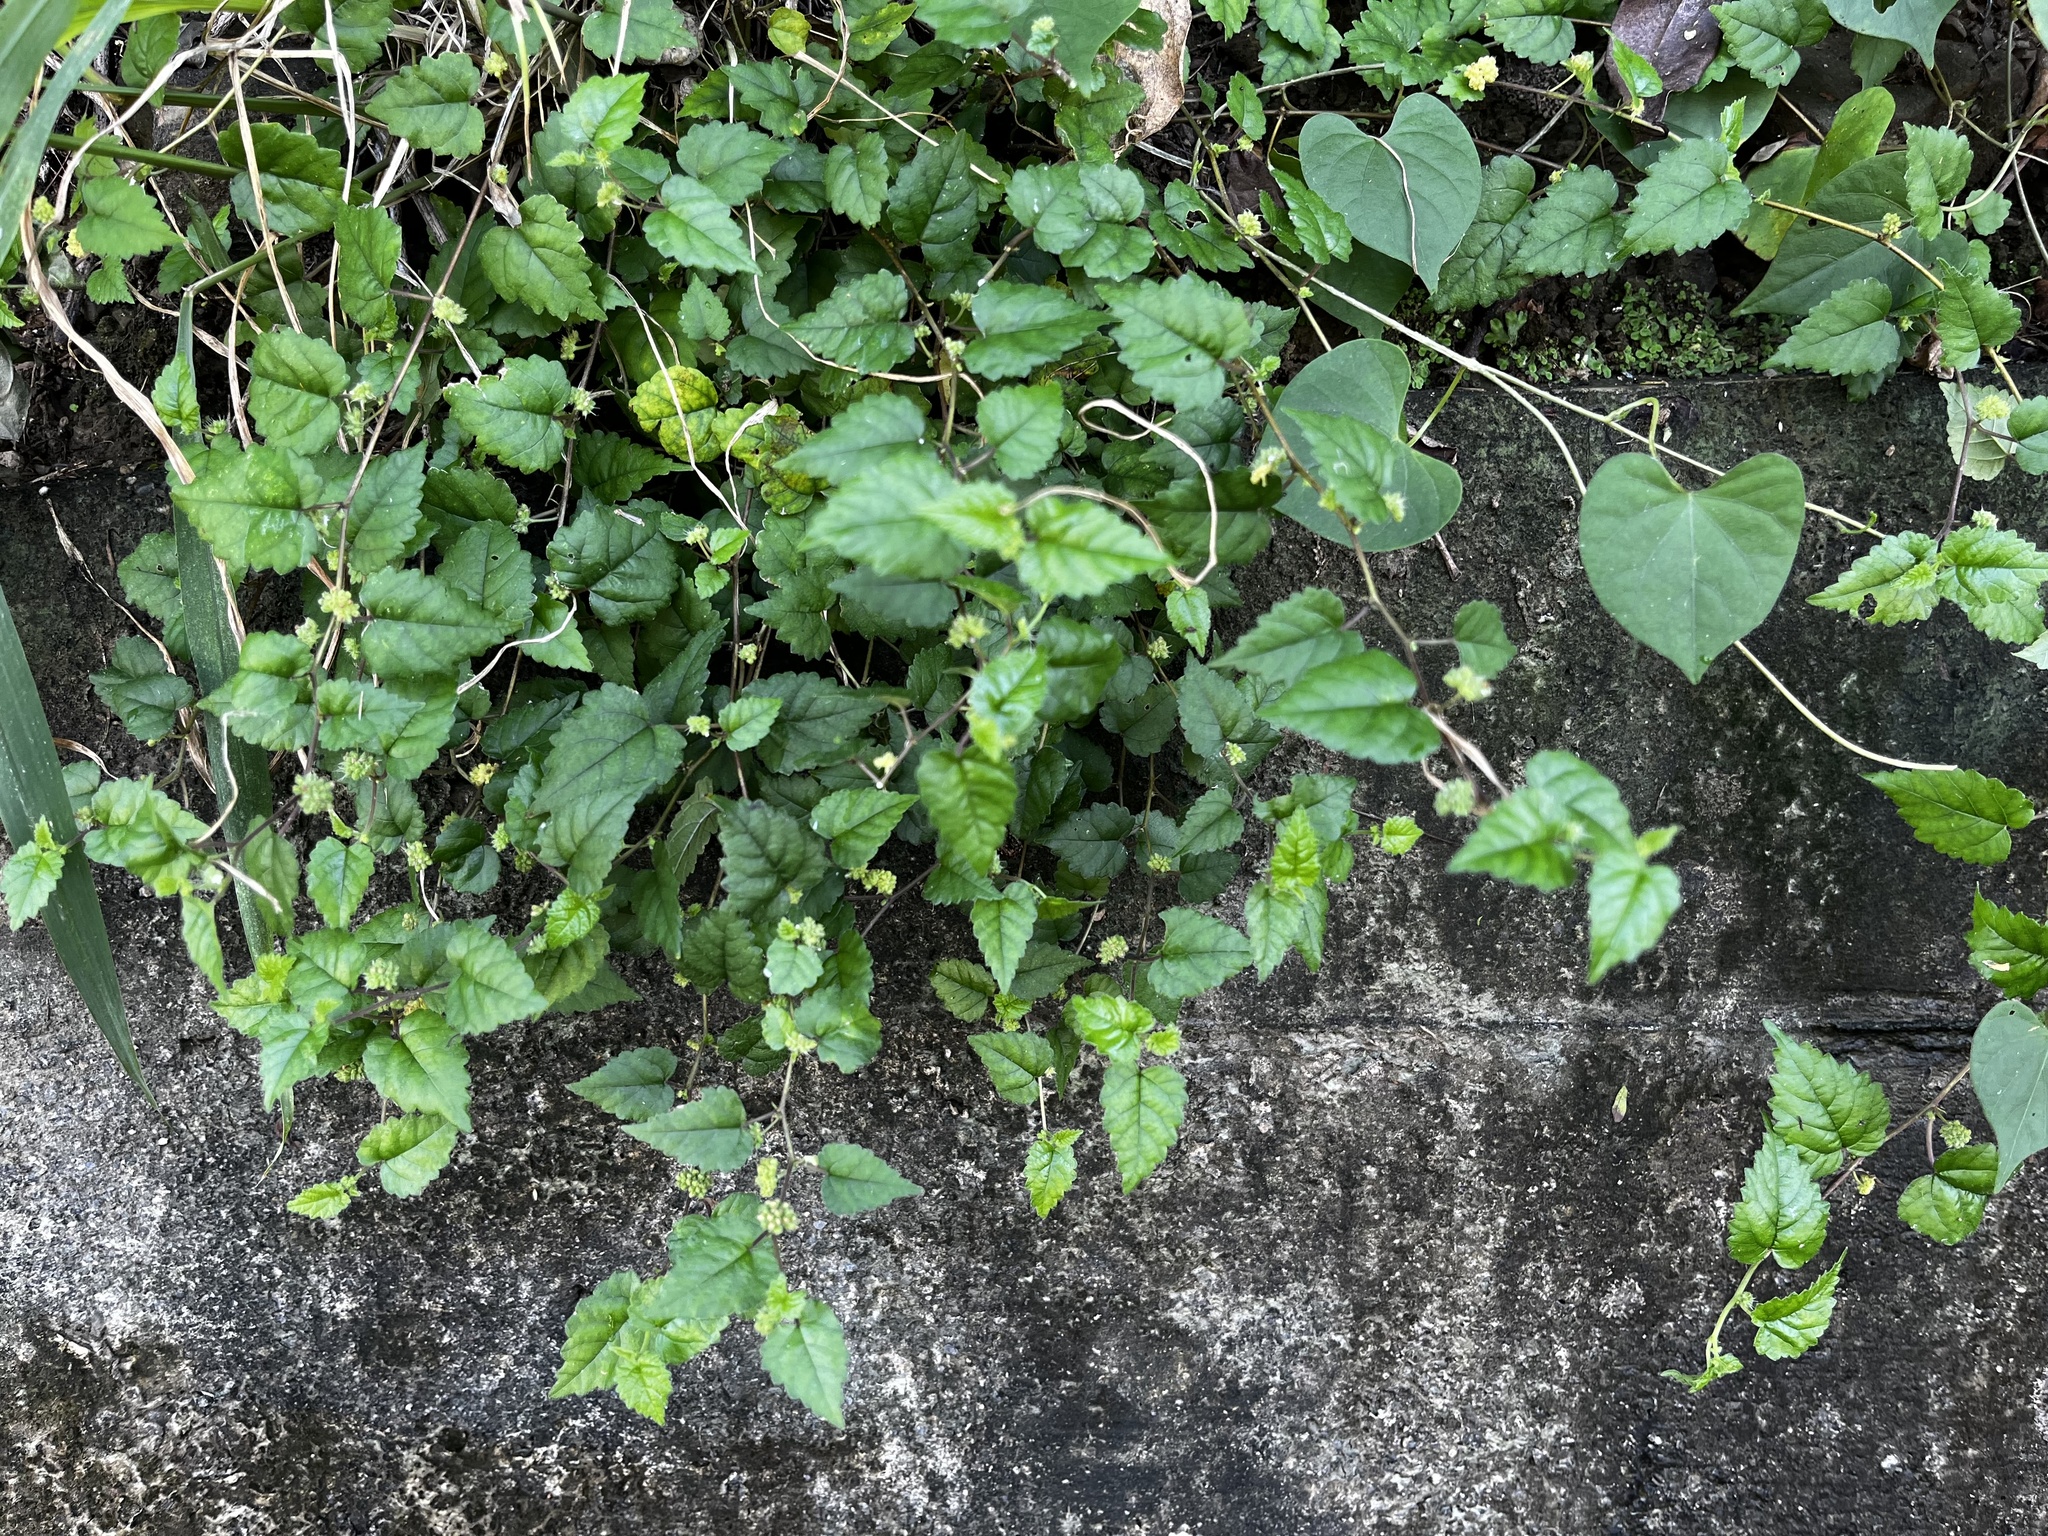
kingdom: Plantae
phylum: Tracheophyta
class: Magnoliopsida
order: Rosales
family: Moraceae
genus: Fatoua
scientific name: Fatoua villosa
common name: Hairy crabweed
